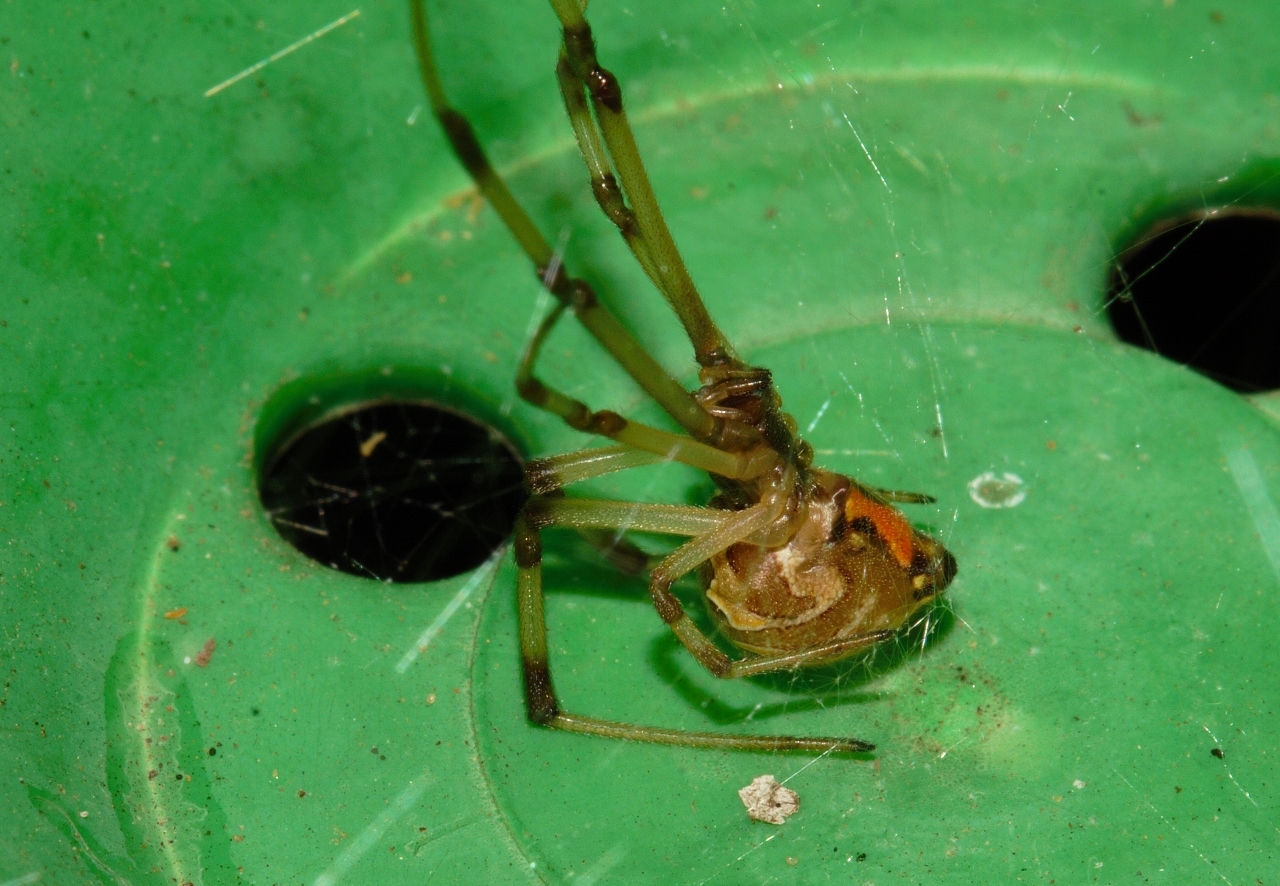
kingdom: Animalia
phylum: Arthropoda
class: Arachnida
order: Araneae
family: Theridiidae
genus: Latrodectus
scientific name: Latrodectus geometricus
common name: Brown widow spider
